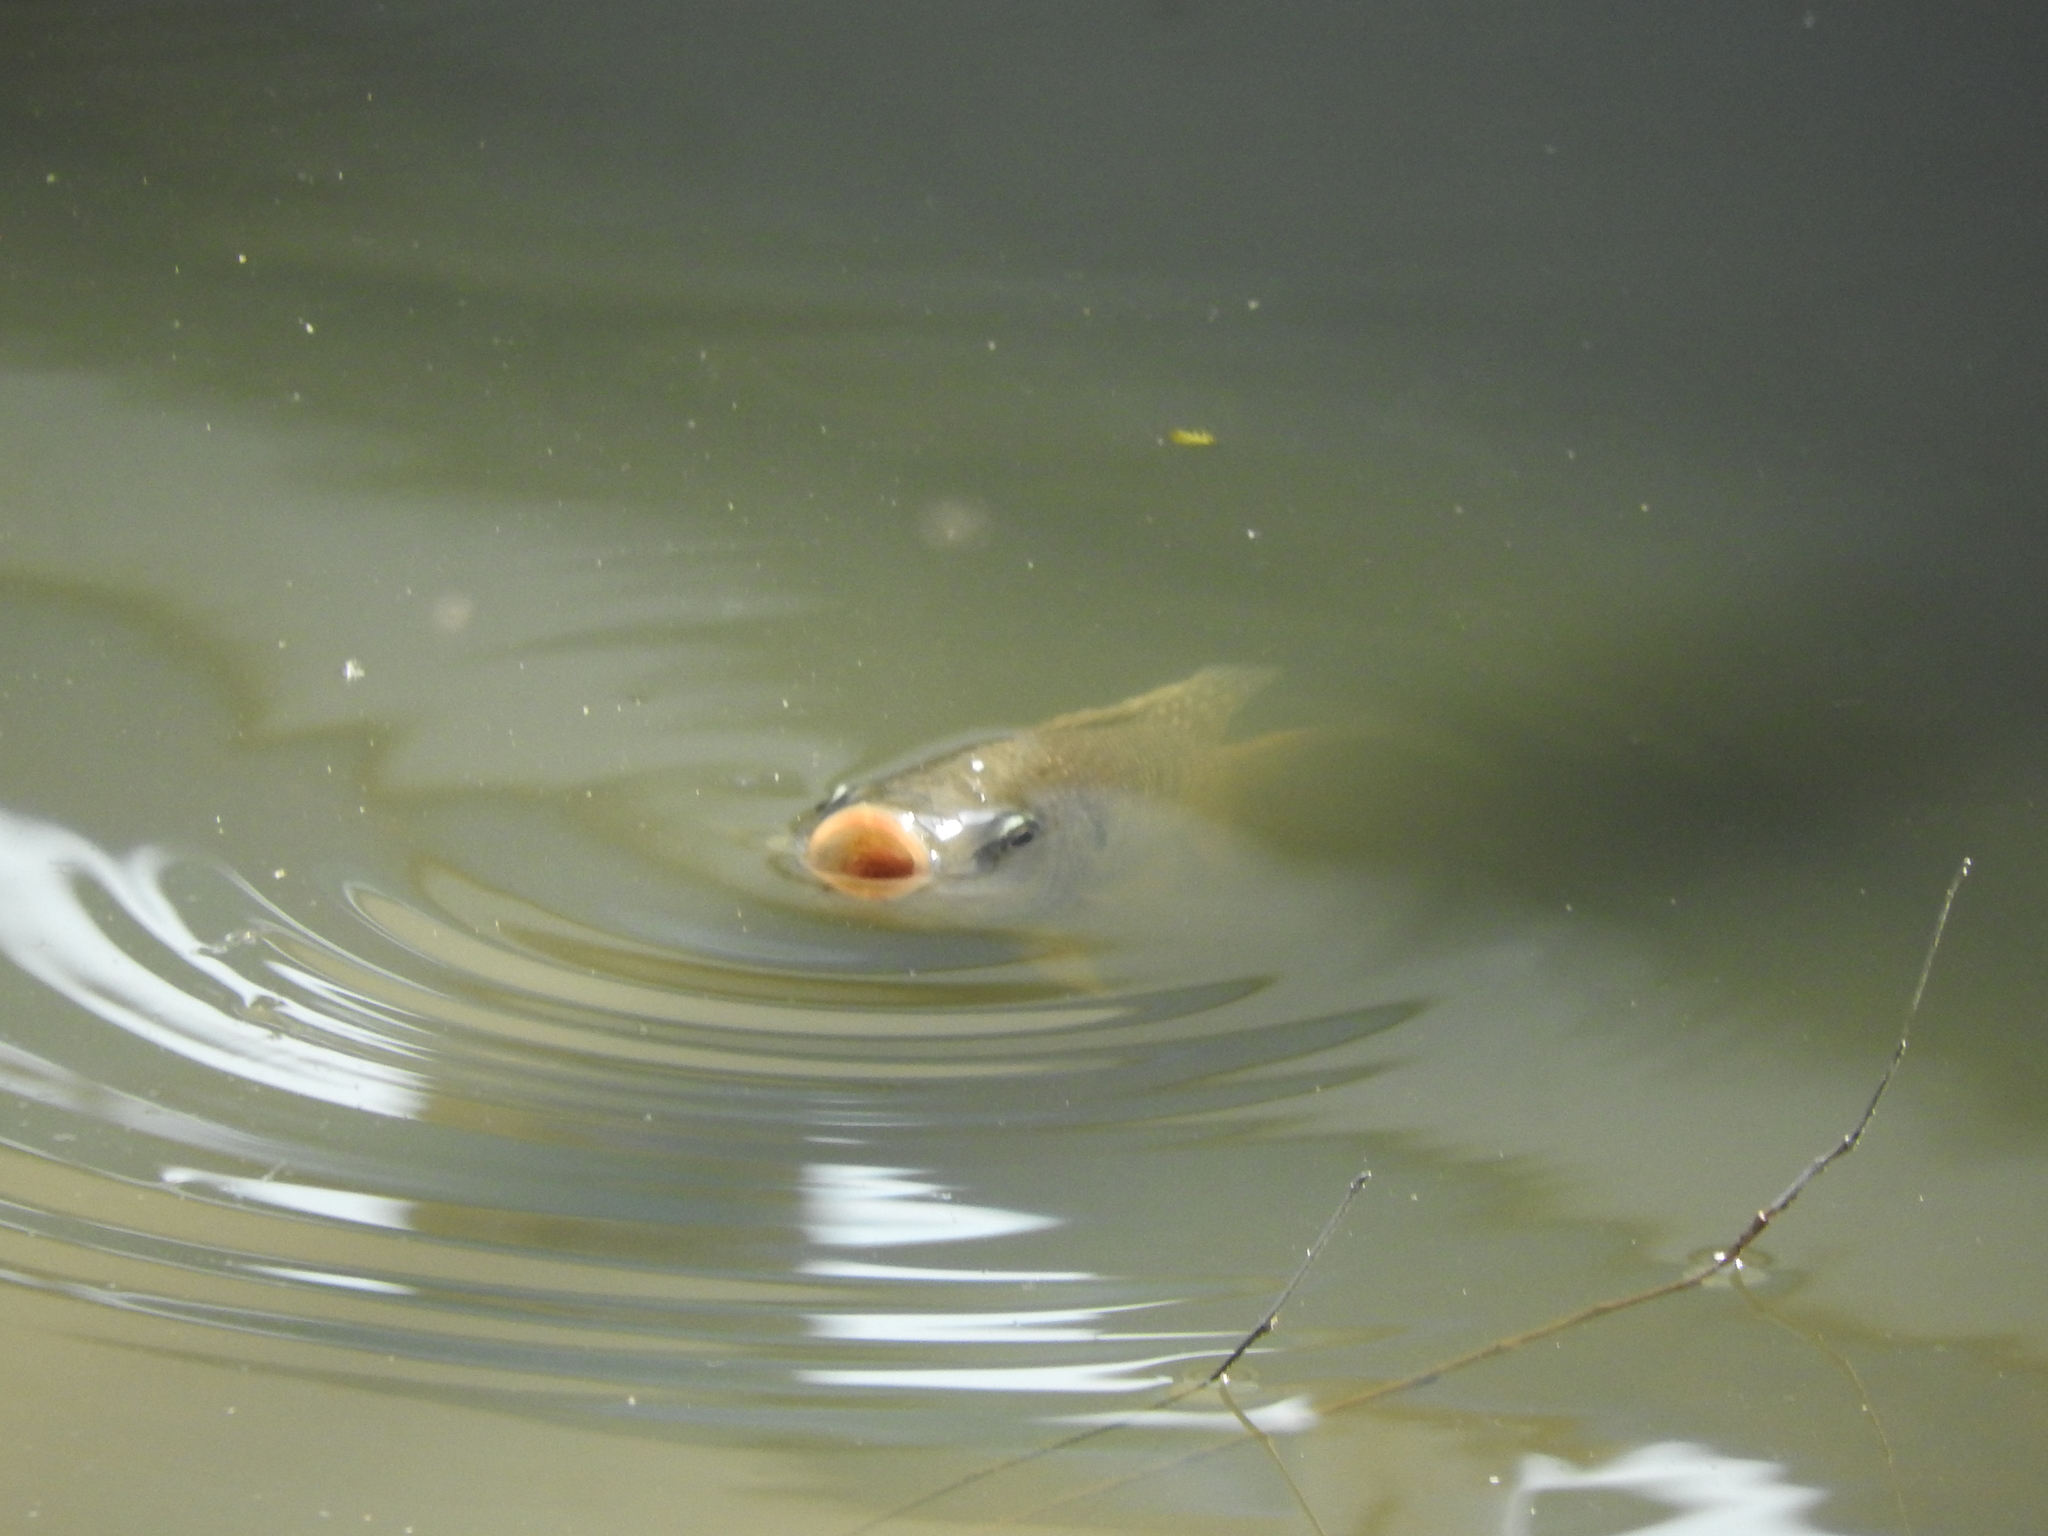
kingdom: Animalia
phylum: Chordata
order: Perciformes
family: Cichlidae
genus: Oreochromis
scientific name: Oreochromis niloticus
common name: Nile tilapia
